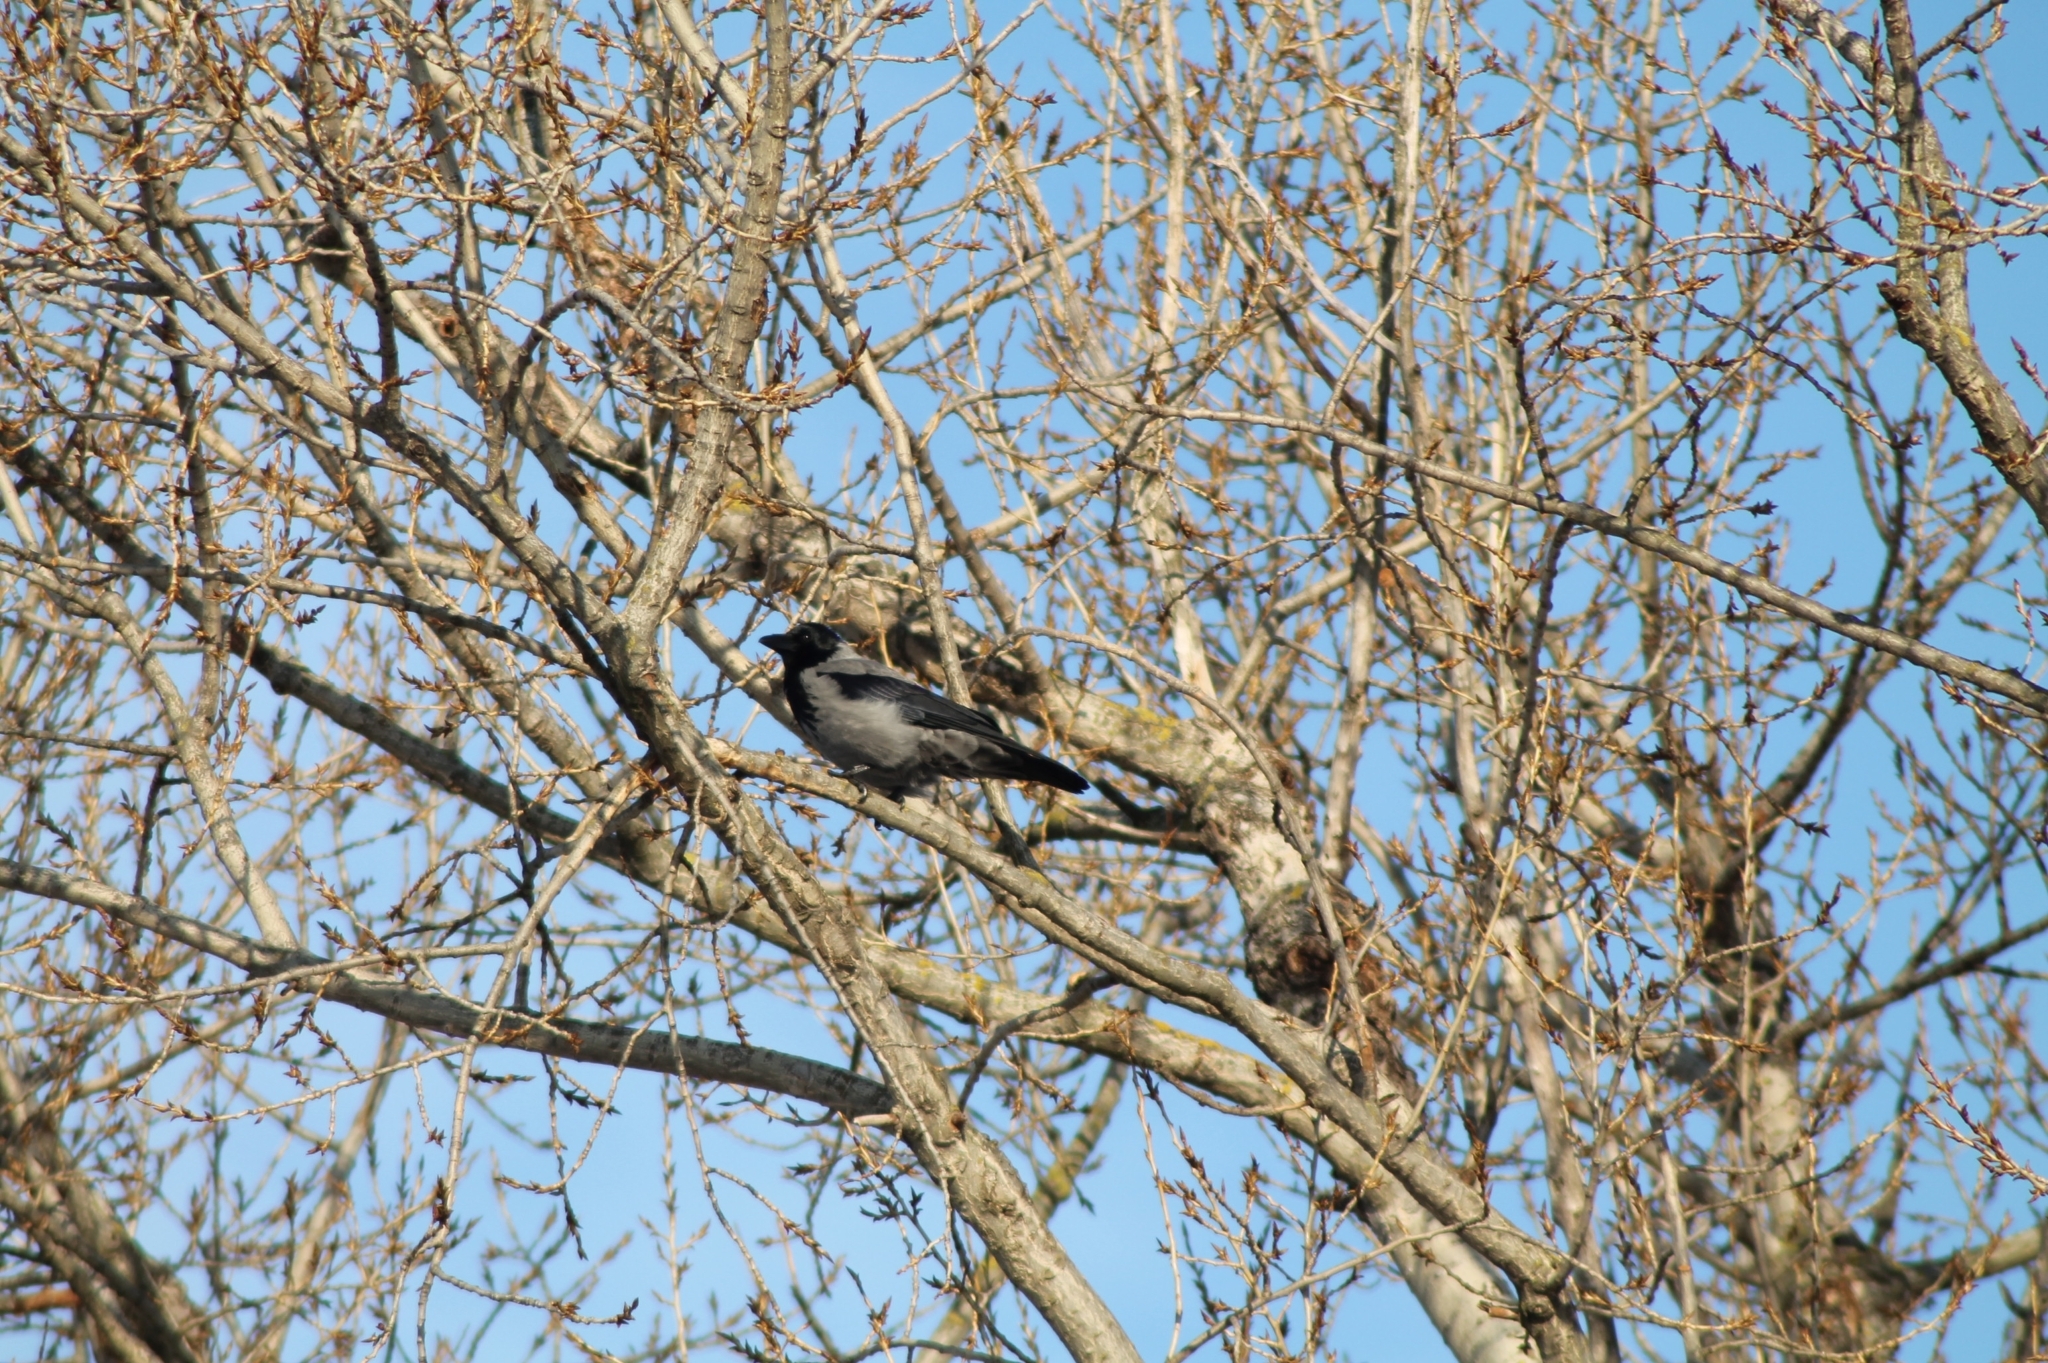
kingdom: Animalia
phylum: Chordata
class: Aves
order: Passeriformes
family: Corvidae
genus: Corvus
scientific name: Corvus cornix
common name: Hooded crow
